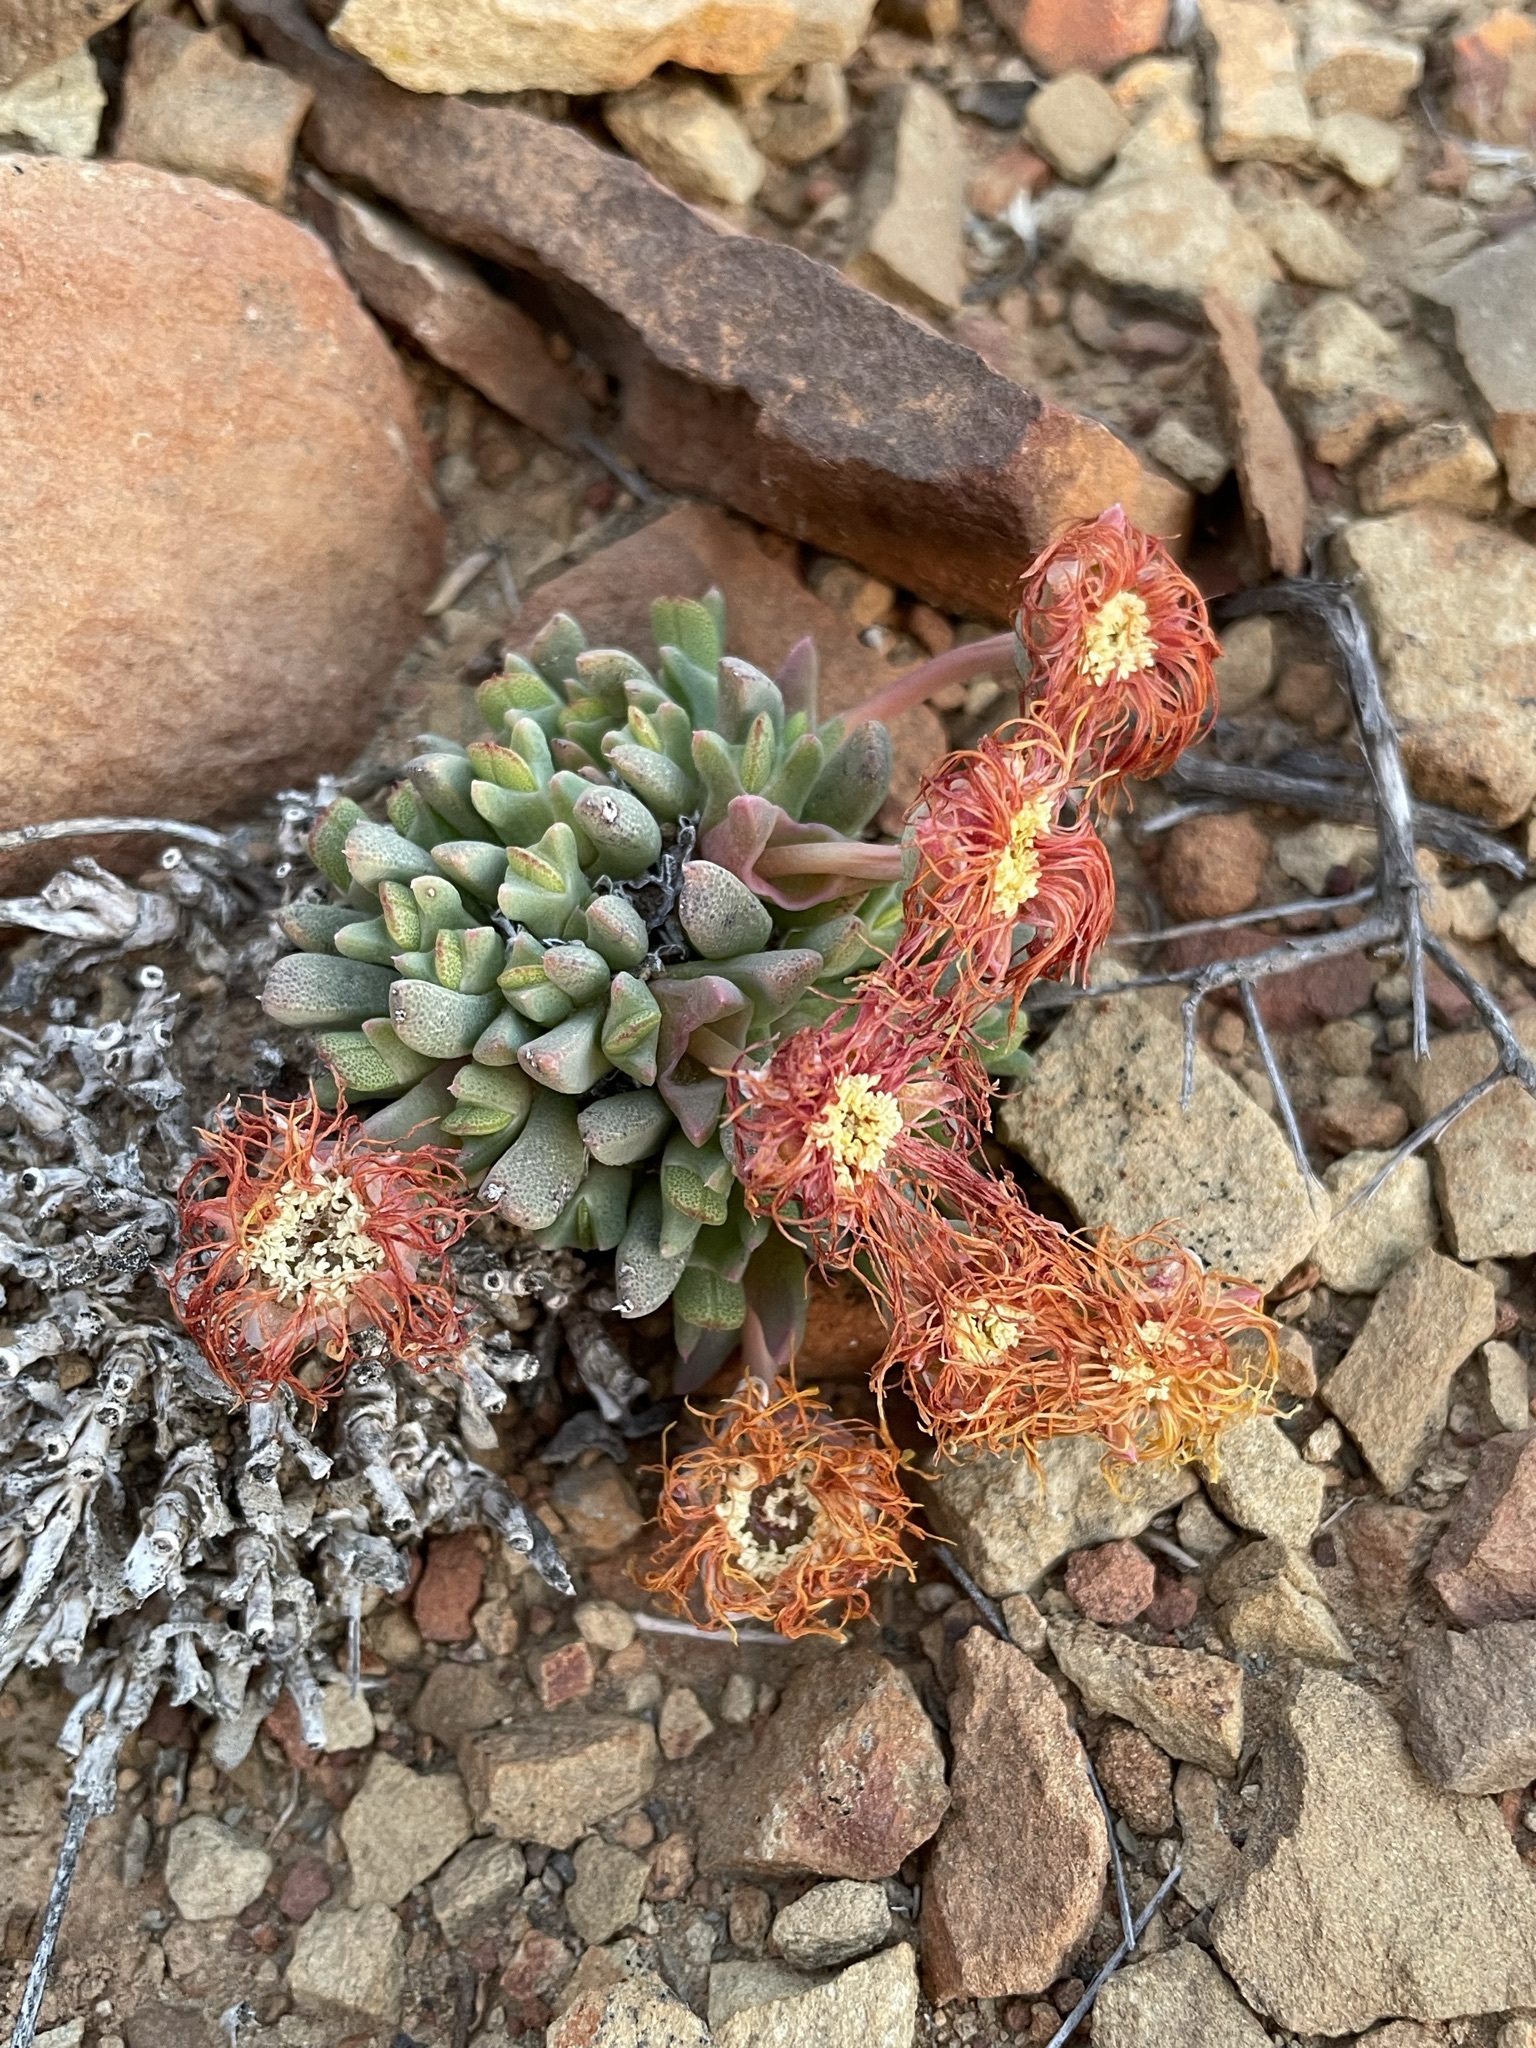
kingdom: Plantae
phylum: Tracheophyta
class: Magnoliopsida
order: Caryophyllales
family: Aizoaceae
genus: Cheiridopsis
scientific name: Cheiridopsis namaquensis
